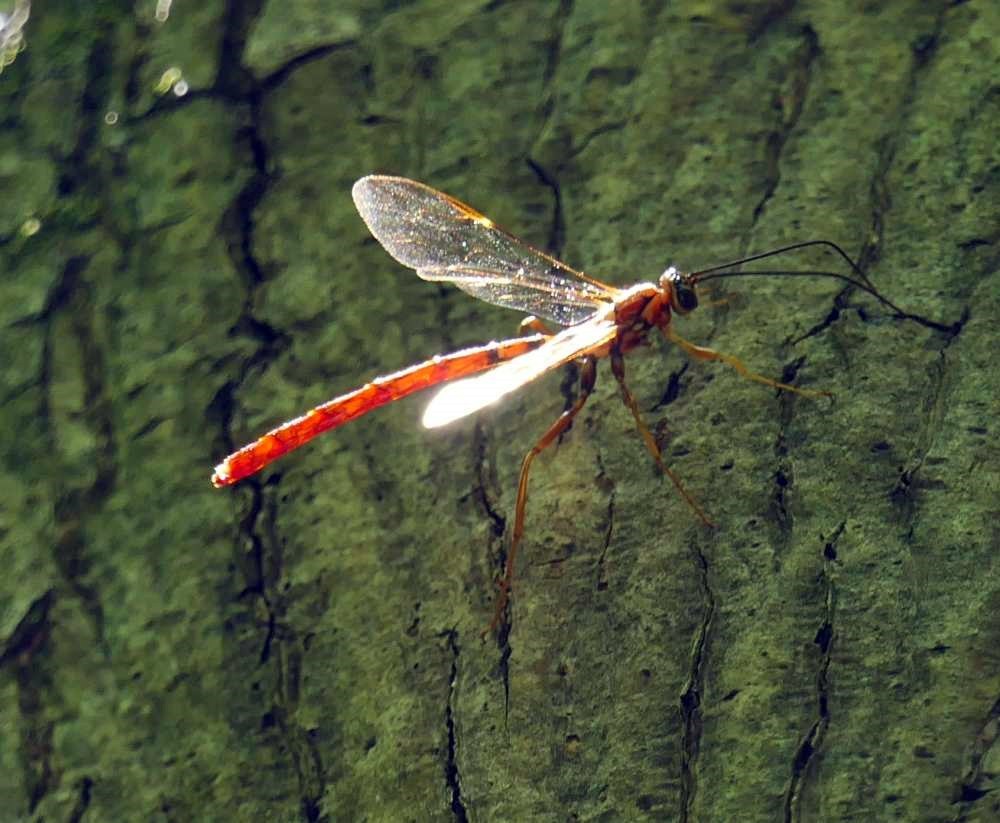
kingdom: Animalia
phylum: Arthropoda
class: Insecta
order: Hymenoptera
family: Ichneumonidae
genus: Megarhyssa
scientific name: Megarhyssa greenei
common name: Greene's giant ichneumonid wasp
